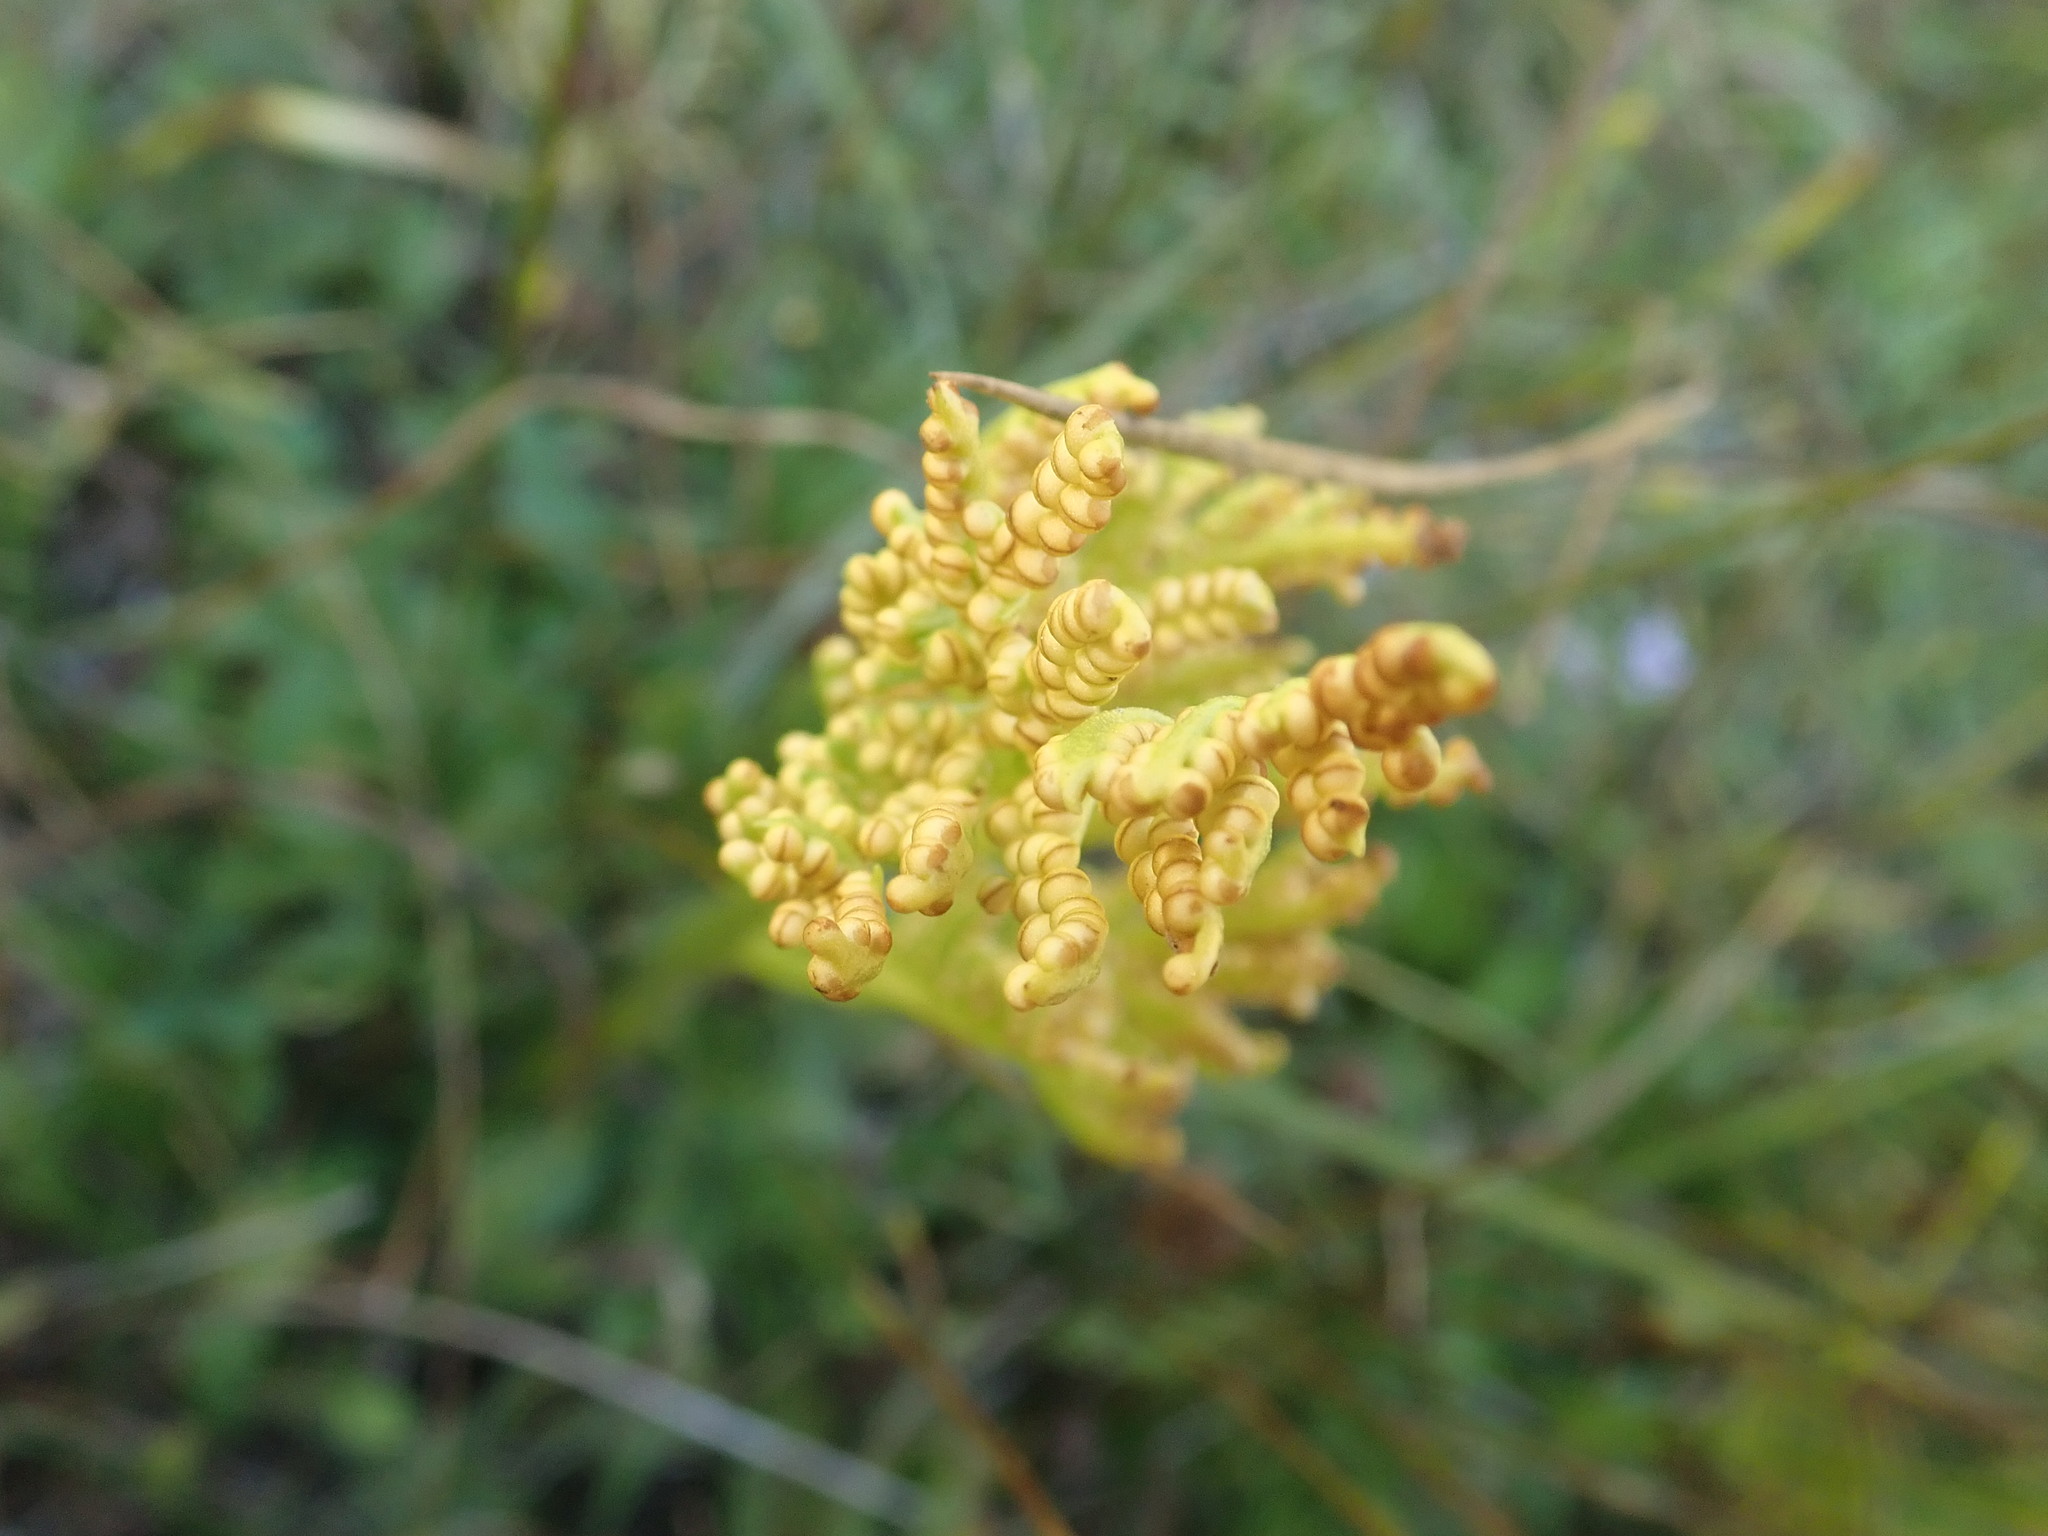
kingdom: Plantae
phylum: Tracheophyta
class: Polypodiopsida
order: Ophioglossales
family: Ophioglossaceae
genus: Sceptridium
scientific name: Sceptridium multifidum
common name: Leathery grape fern
